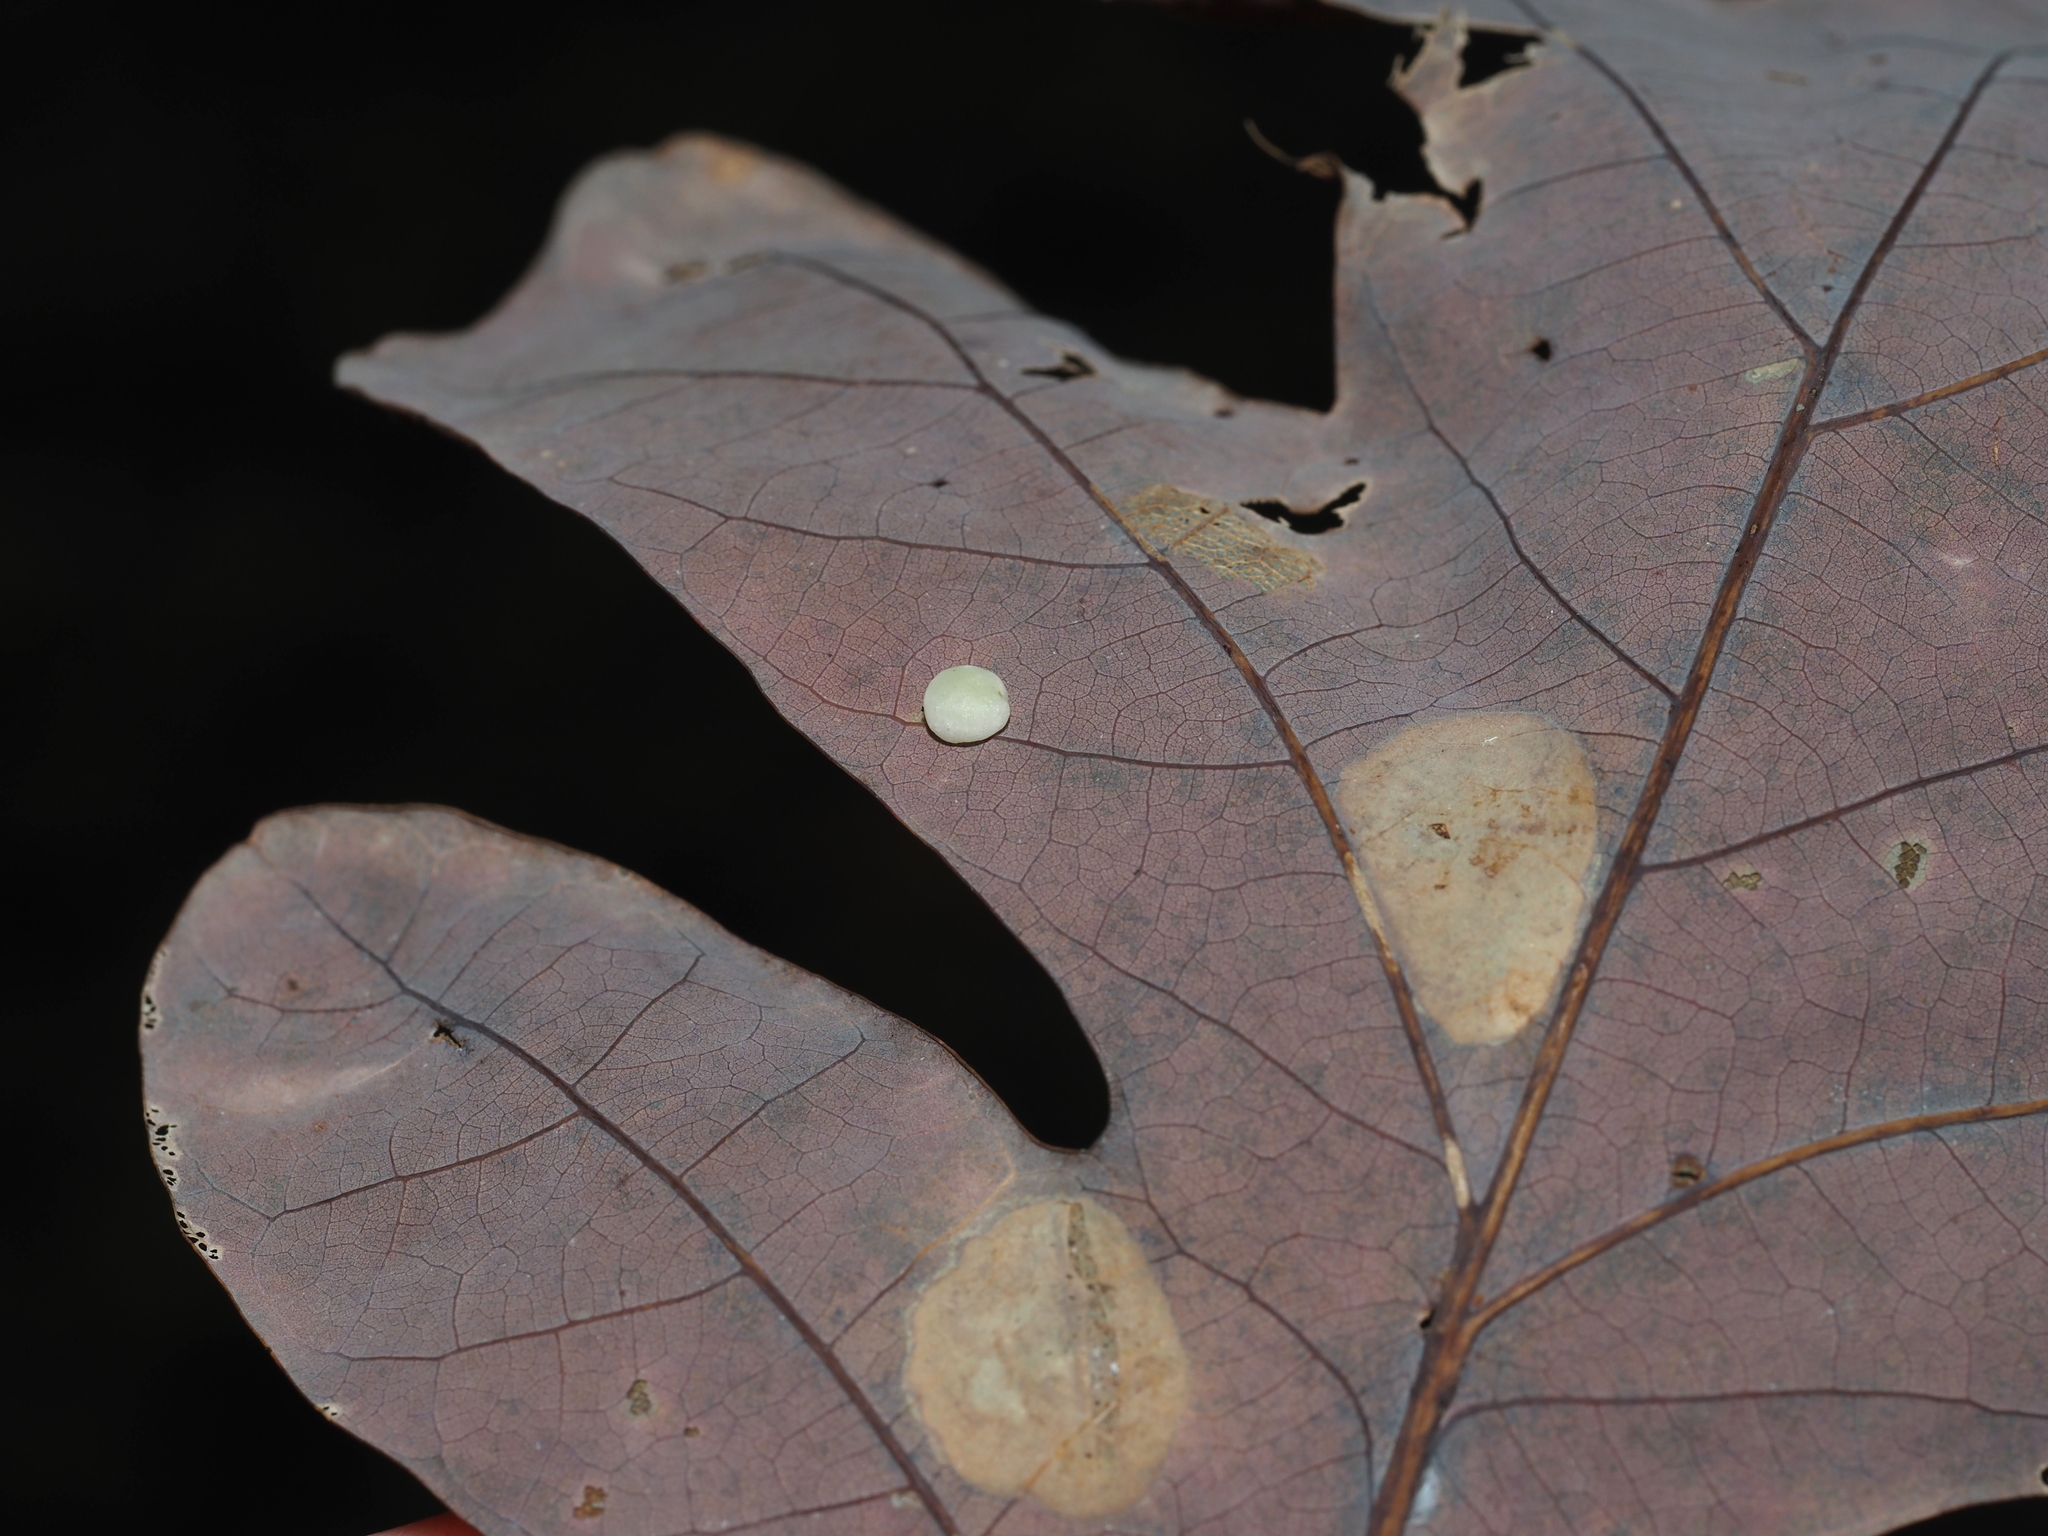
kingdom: Animalia
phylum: Arthropoda
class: Insecta
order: Hymenoptera
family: Cynipidae
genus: Phylloteras
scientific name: Phylloteras
